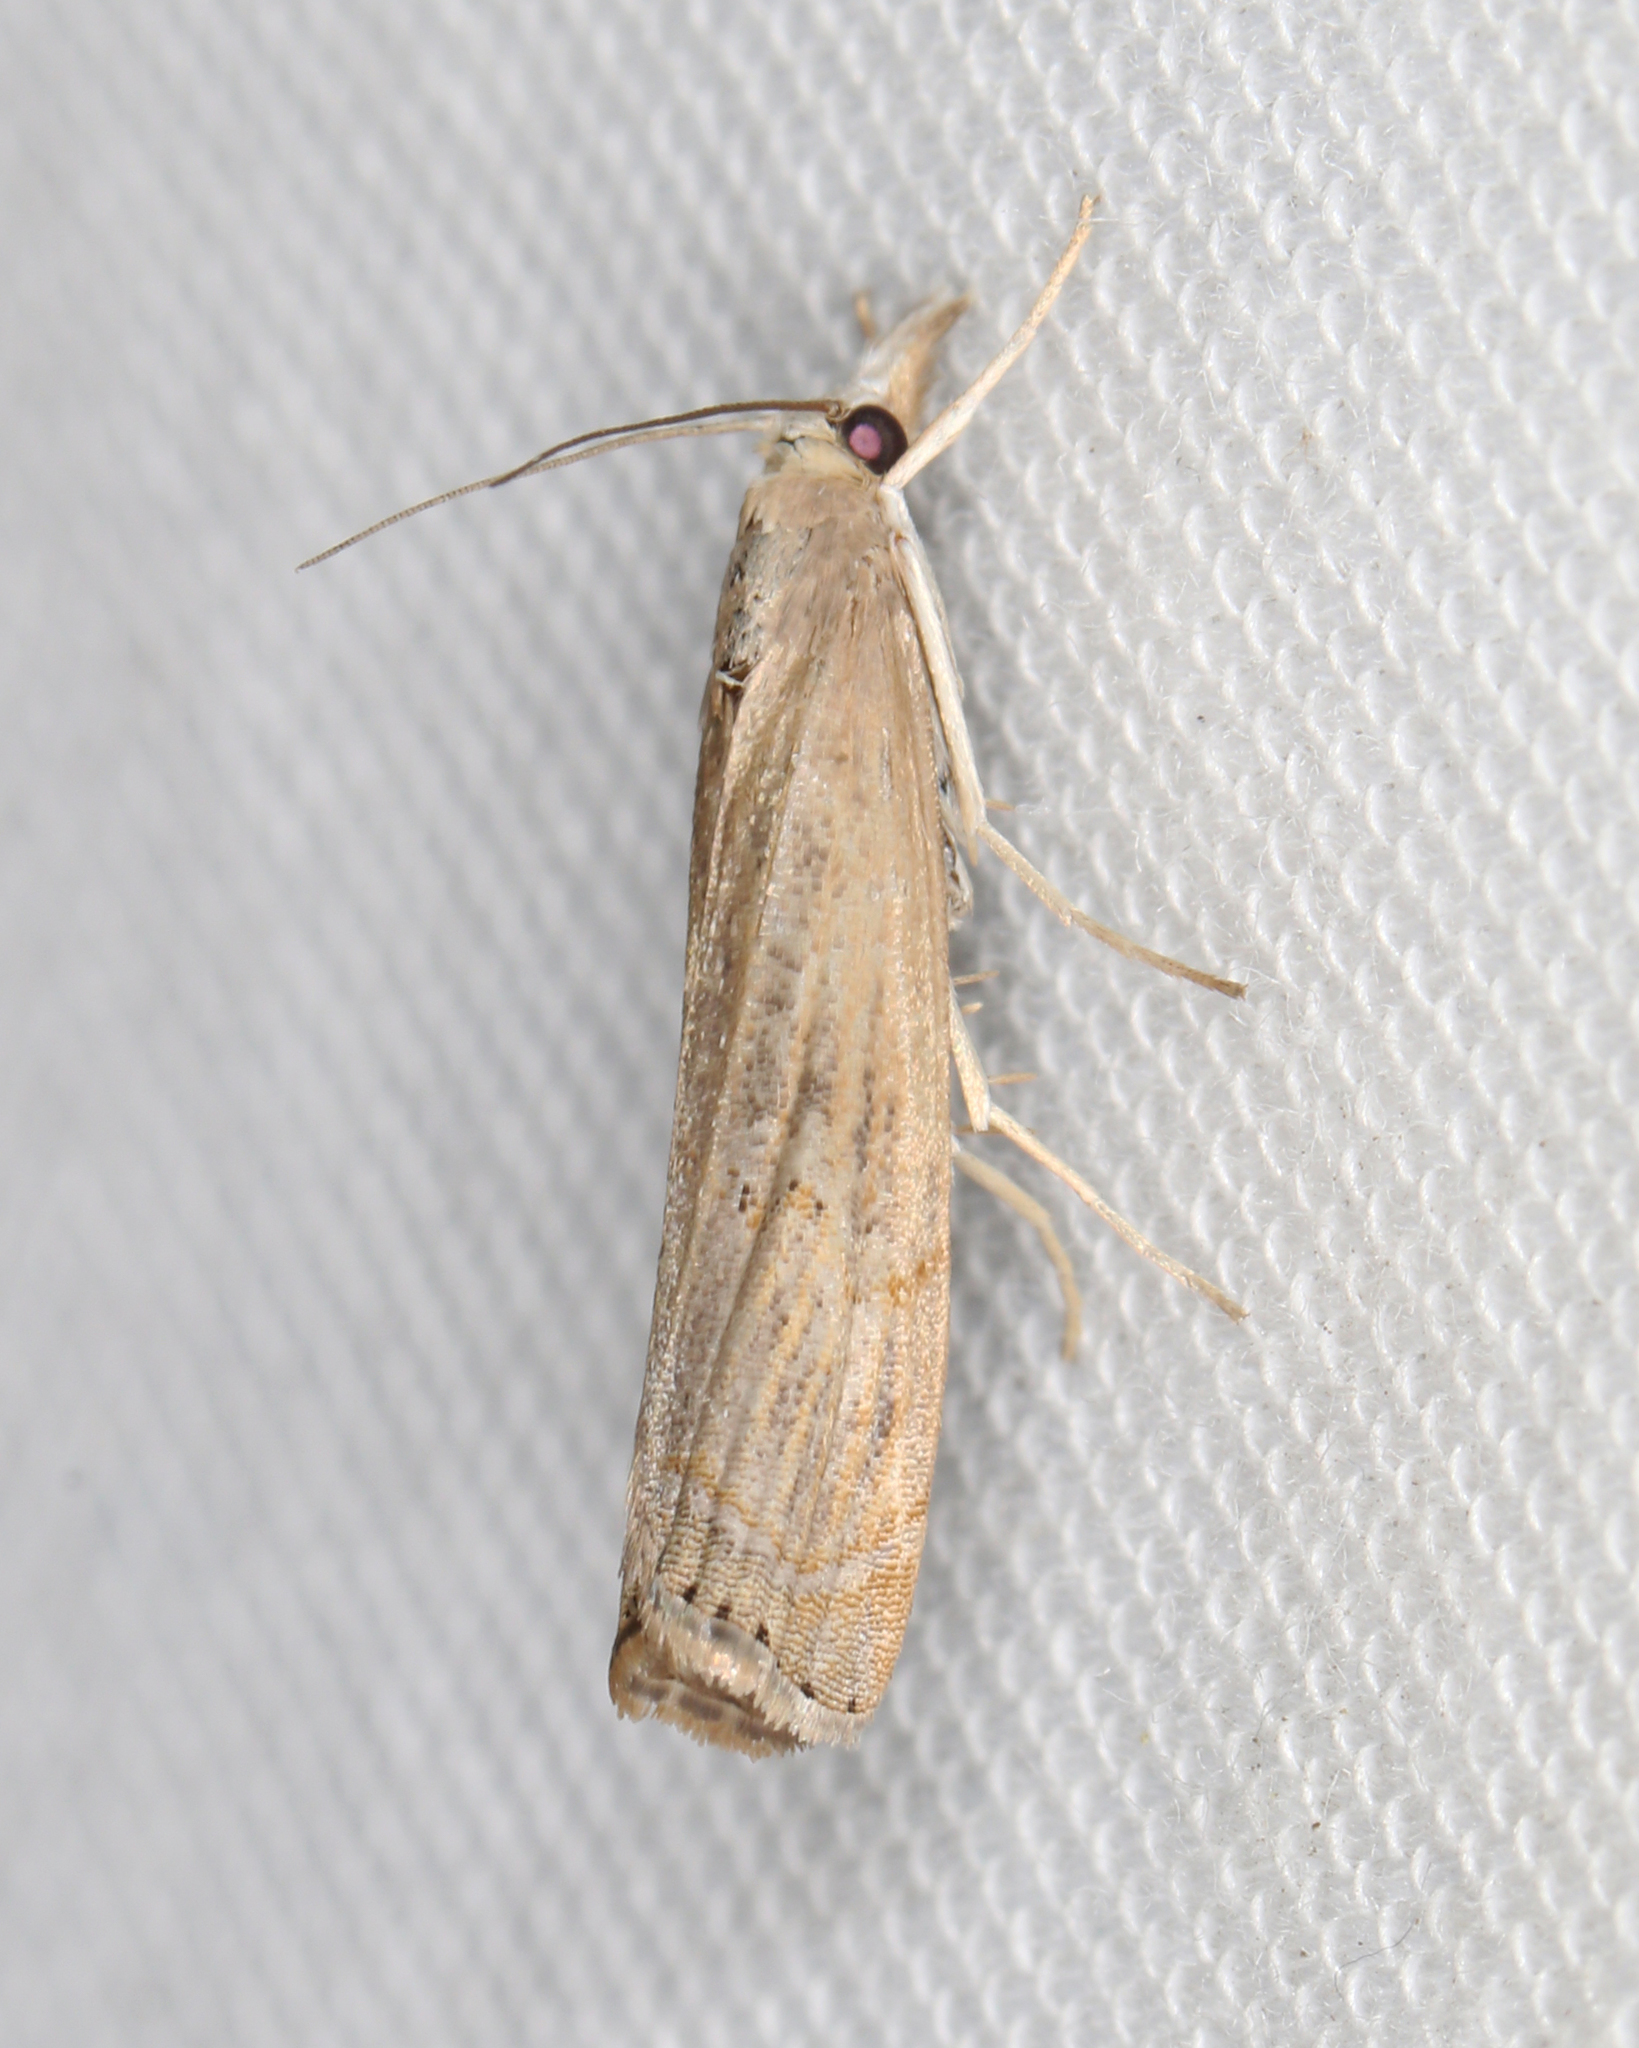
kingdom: Animalia
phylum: Arthropoda
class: Insecta
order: Lepidoptera
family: Crambidae
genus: Parapediasia
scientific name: Parapediasia teterellus
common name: Bluegrass webworm moth
